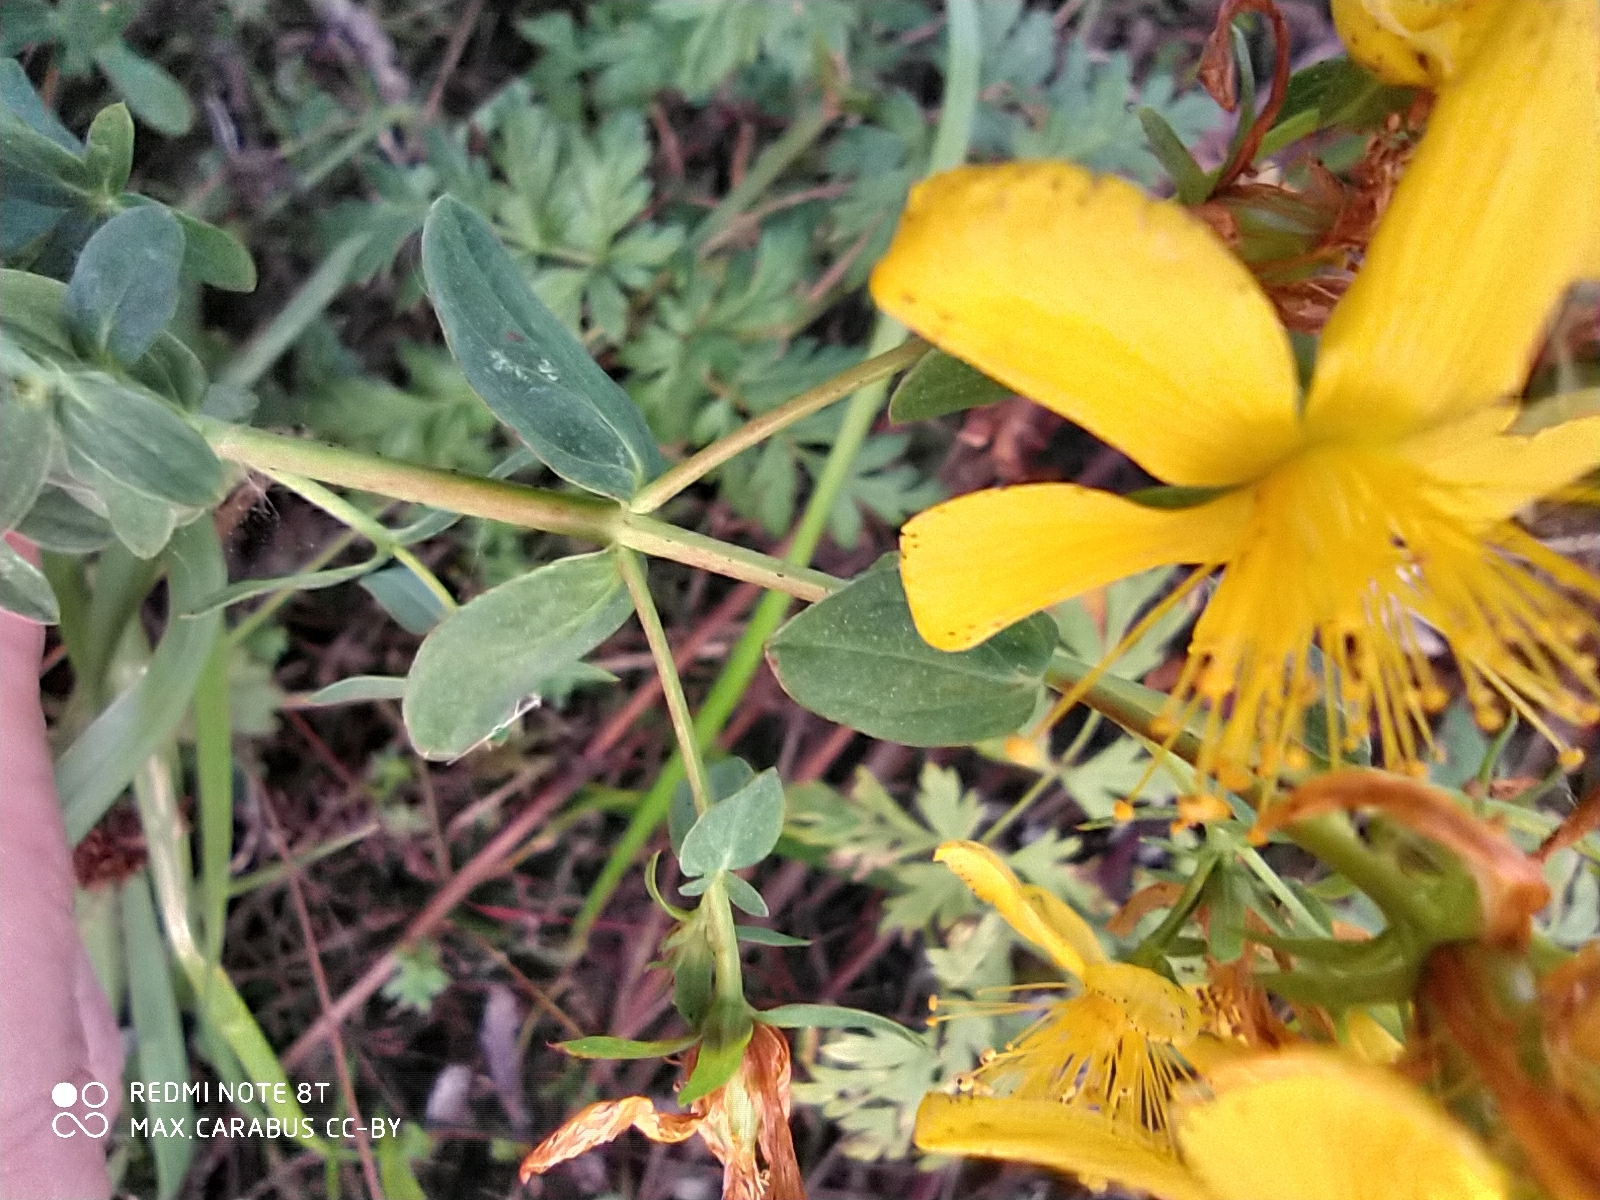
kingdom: Plantae
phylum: Tracheophyta
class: Magnoliopsida
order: Malpighiales
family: Hypericaceae
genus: Hypericum
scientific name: Hypericum perforatum
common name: Common st. johnswort
